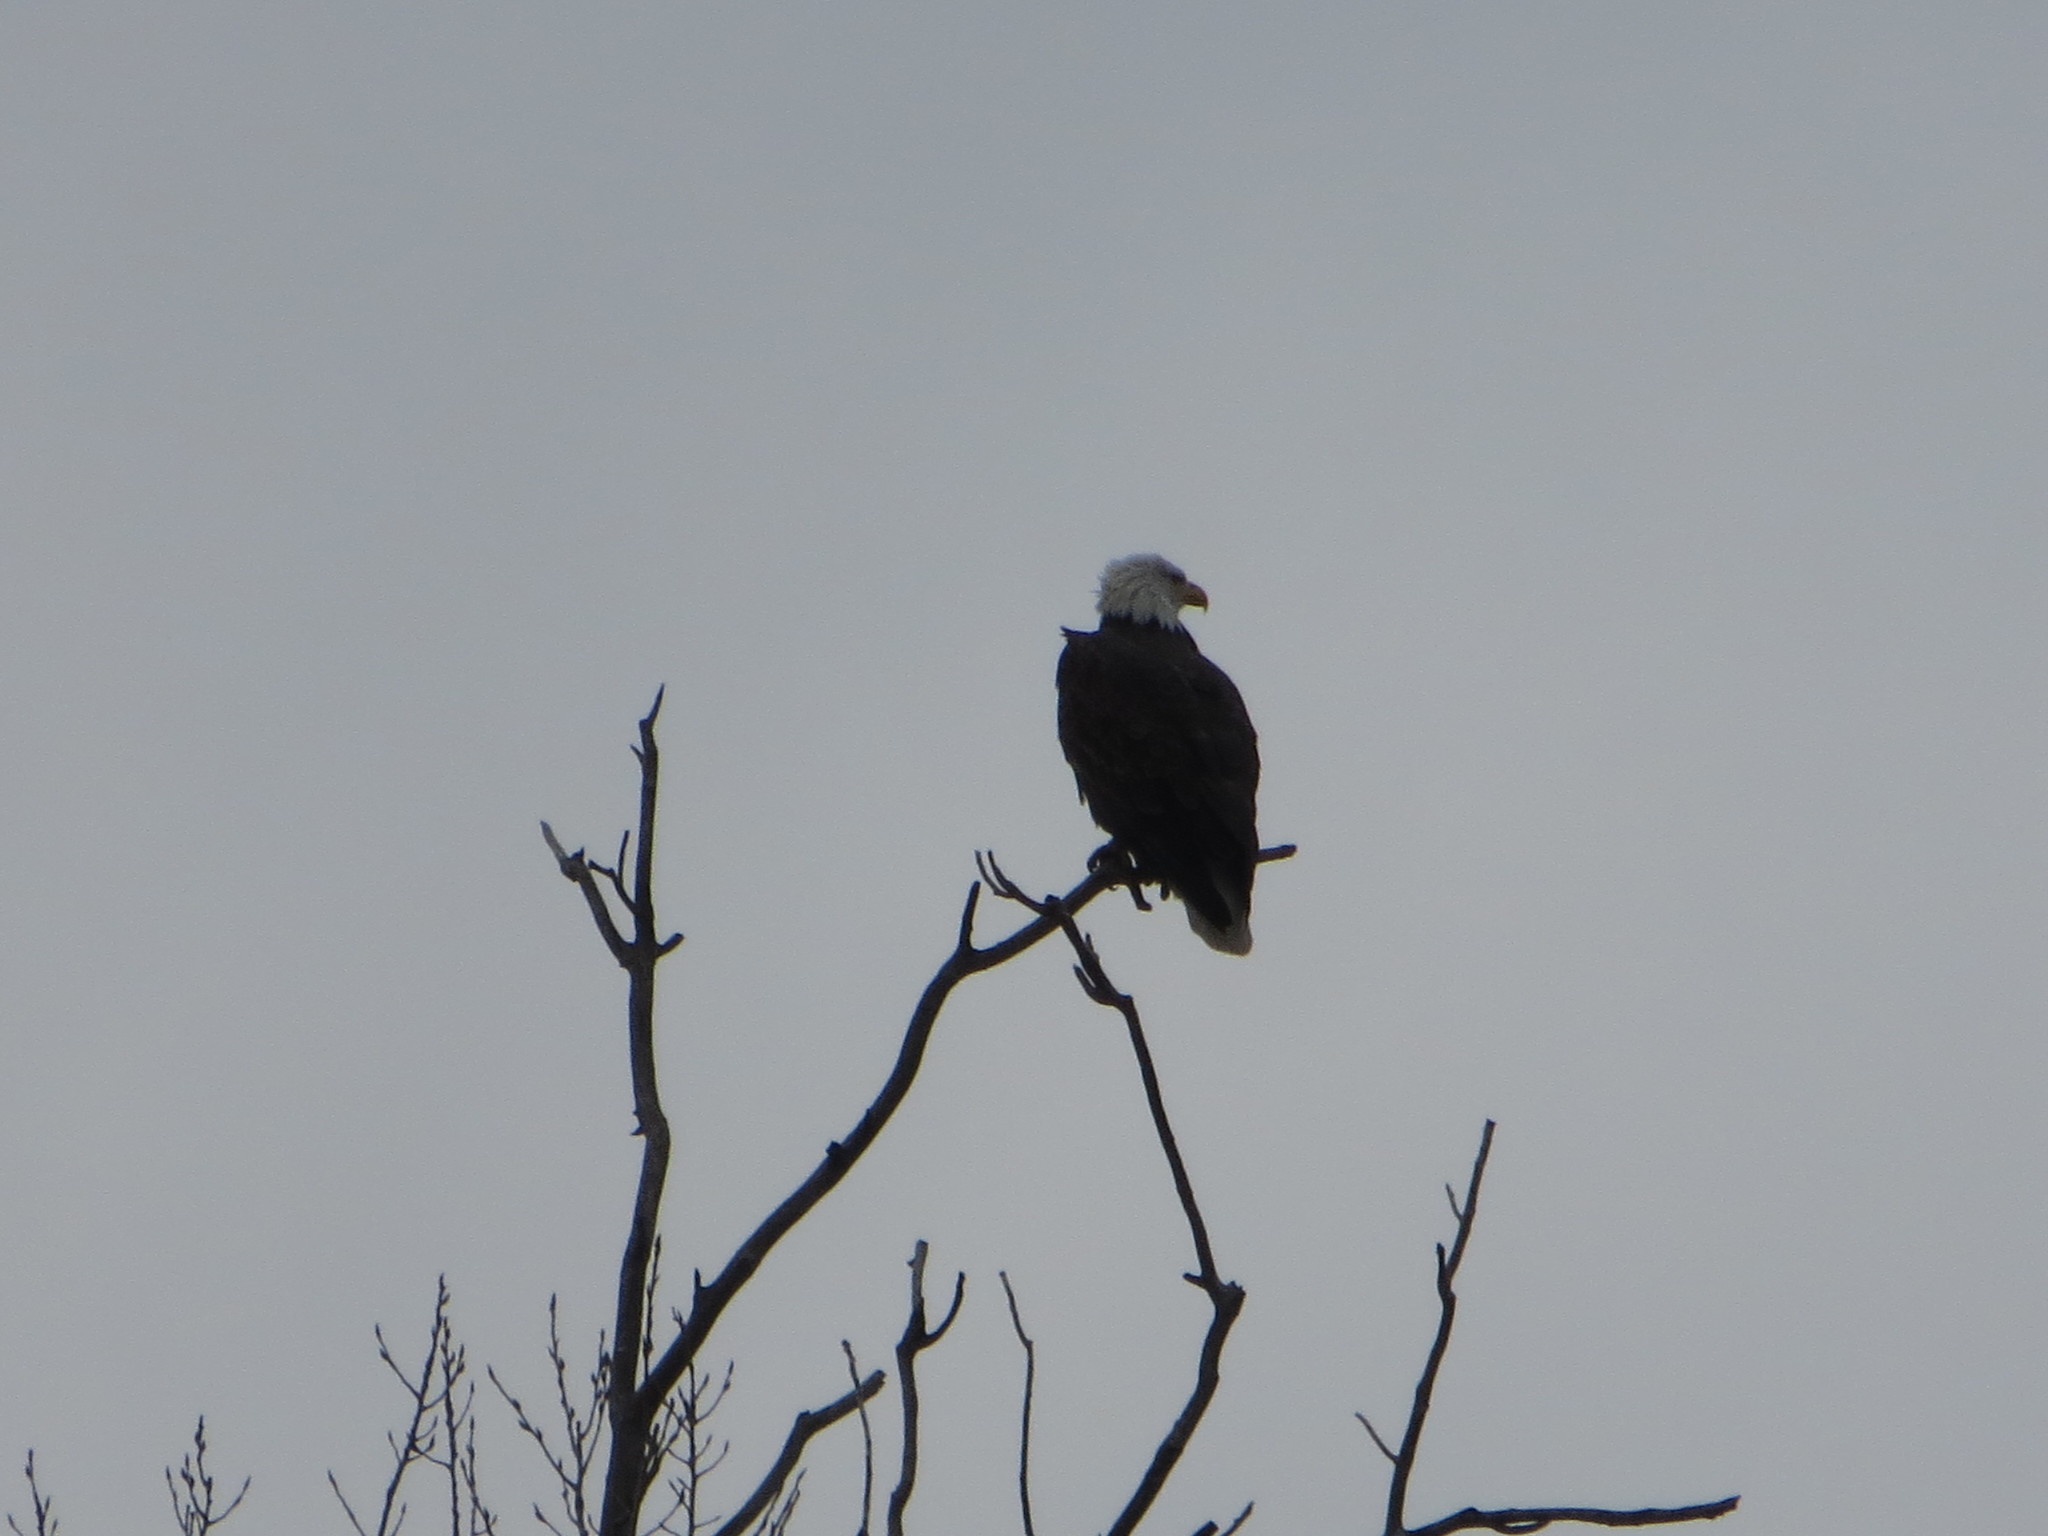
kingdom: Animalia
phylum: Chordata
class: Aves
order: Accipitriformes
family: Accipitridae
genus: Haliaeetus
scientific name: Haliaeetus leucocephalus
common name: Bald eagle
